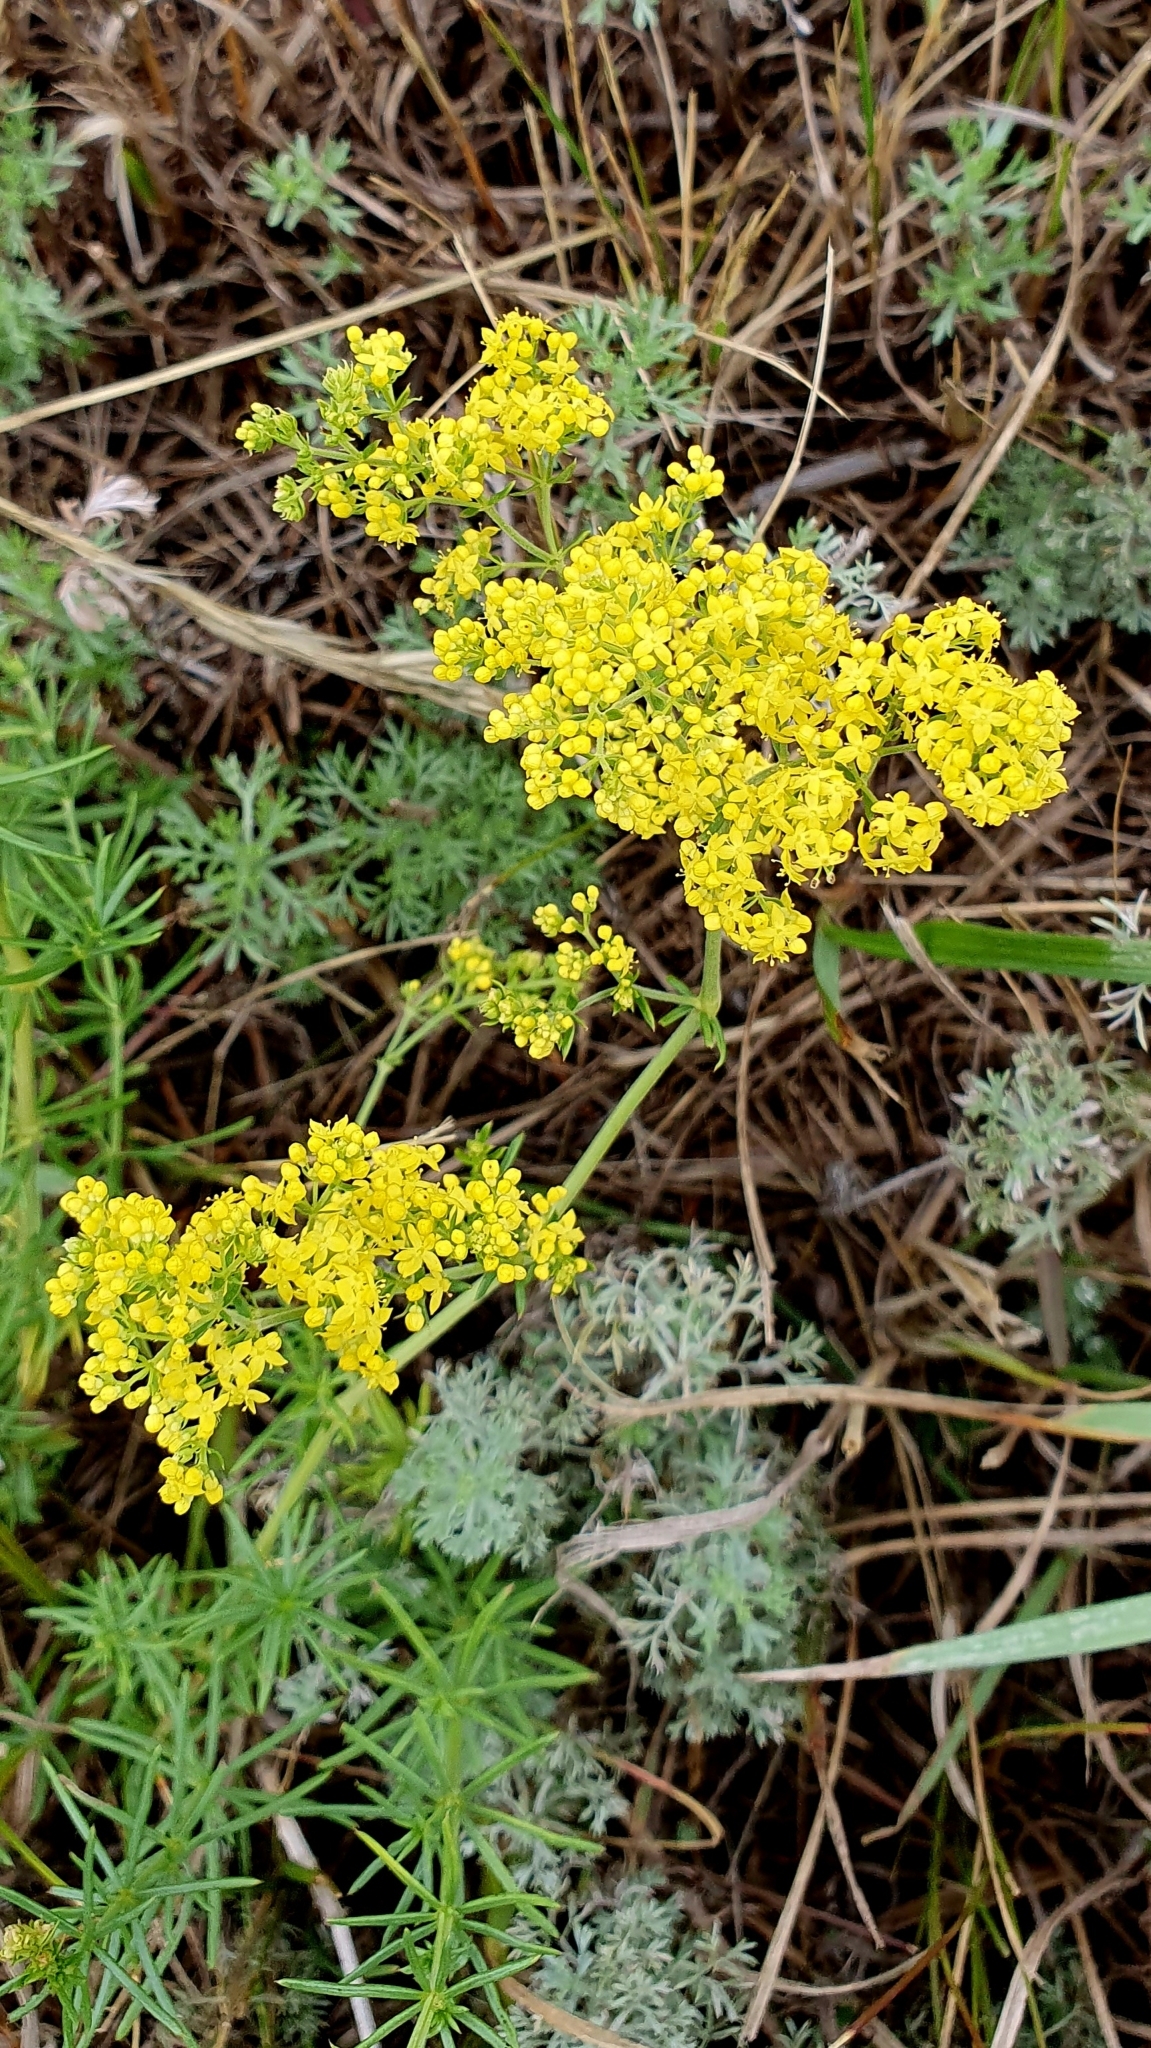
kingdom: Plantae
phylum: Tracheophyta
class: Magnoliopsida
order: Gentianales
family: Rubiaceae
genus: Galium
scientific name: Galium verum
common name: Lady's bedstraw
